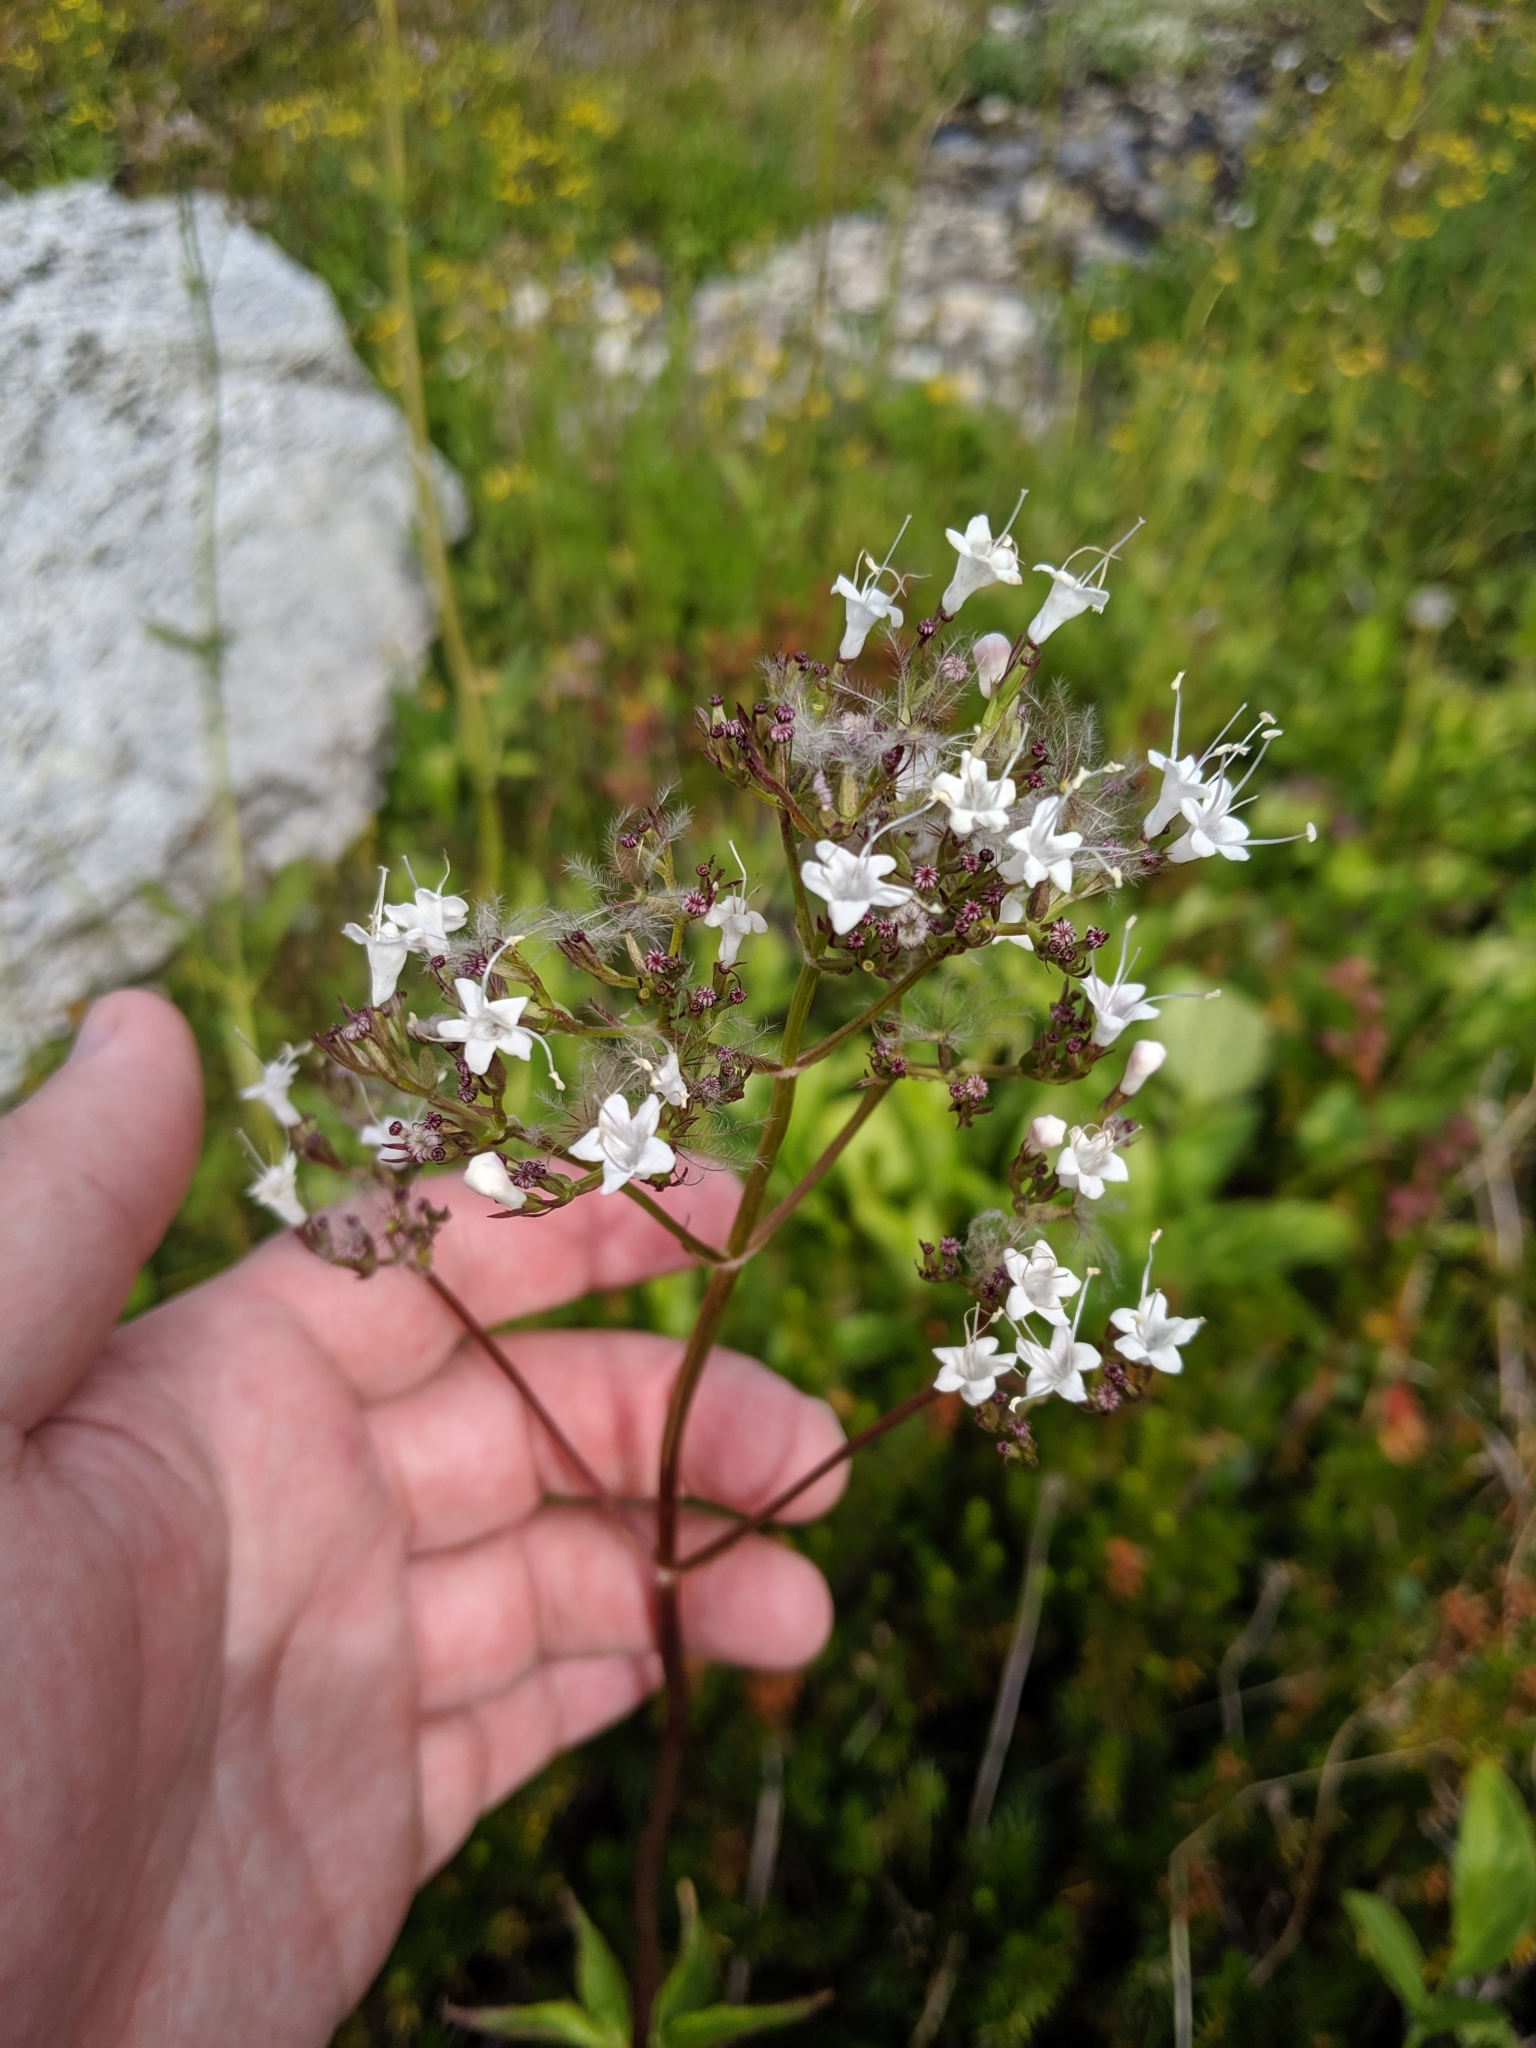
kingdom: Plantae
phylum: Tracheophyta
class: Magnoliopsida
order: Dipsacales
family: Caprifoliaceae
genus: Valeriana
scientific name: Valeriana sitchensis
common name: Pacific valerian
